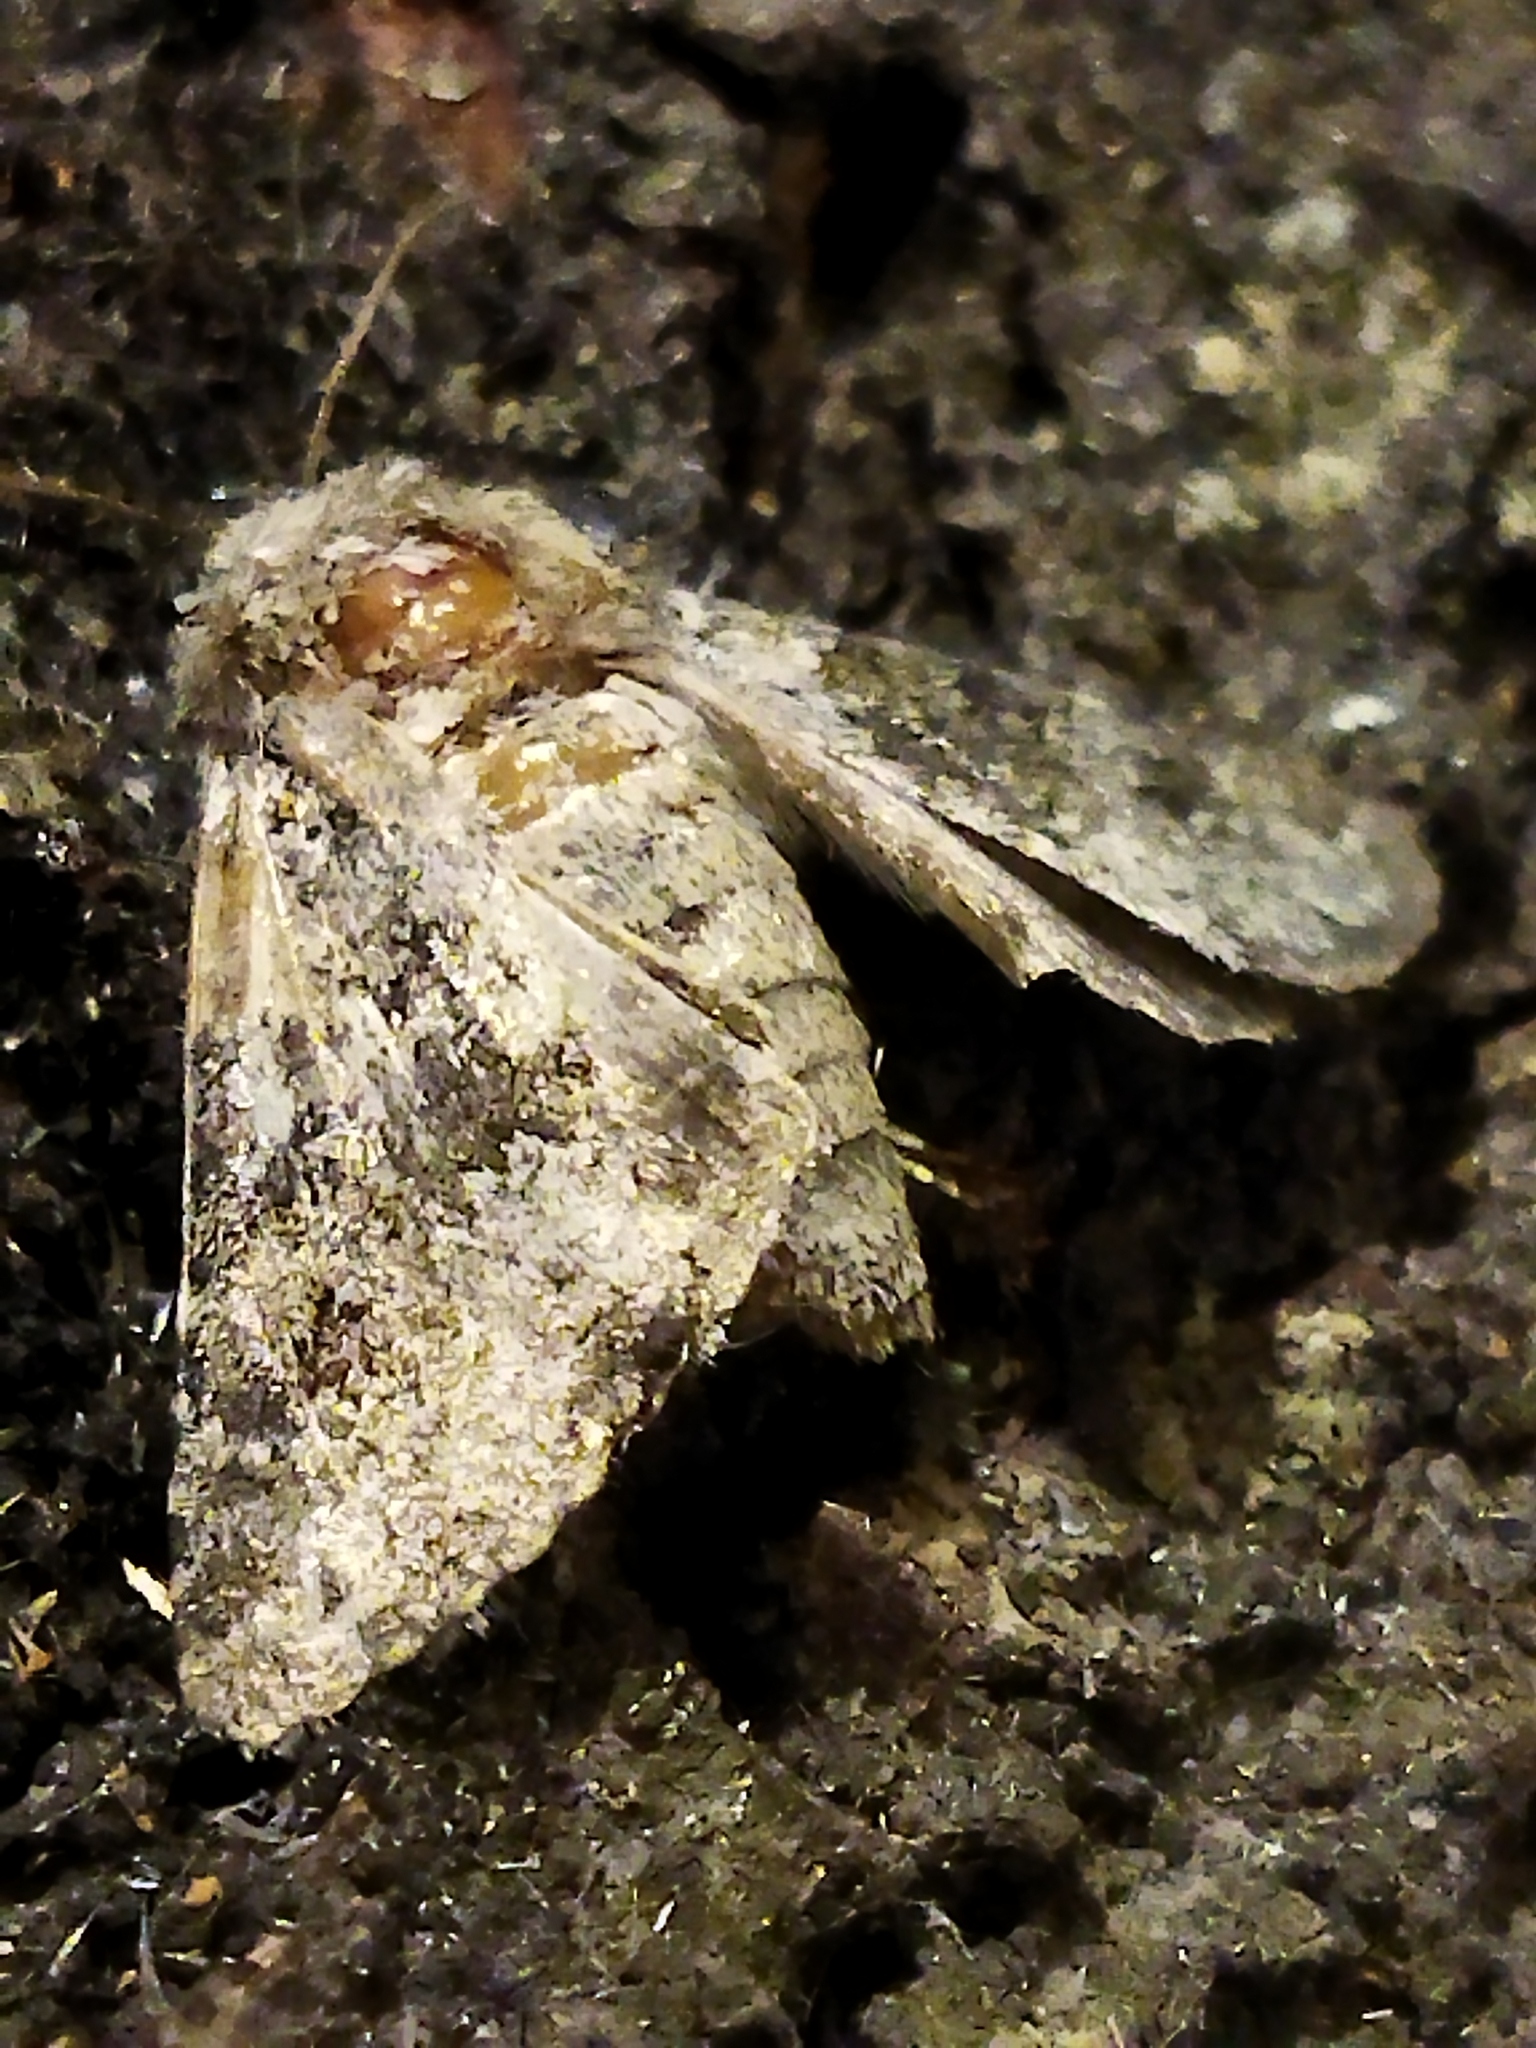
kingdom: Animalia
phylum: Arthropoda
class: Insecta
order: Lepidoptera
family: Noctuidae
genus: Hecatera
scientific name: Hecatera
